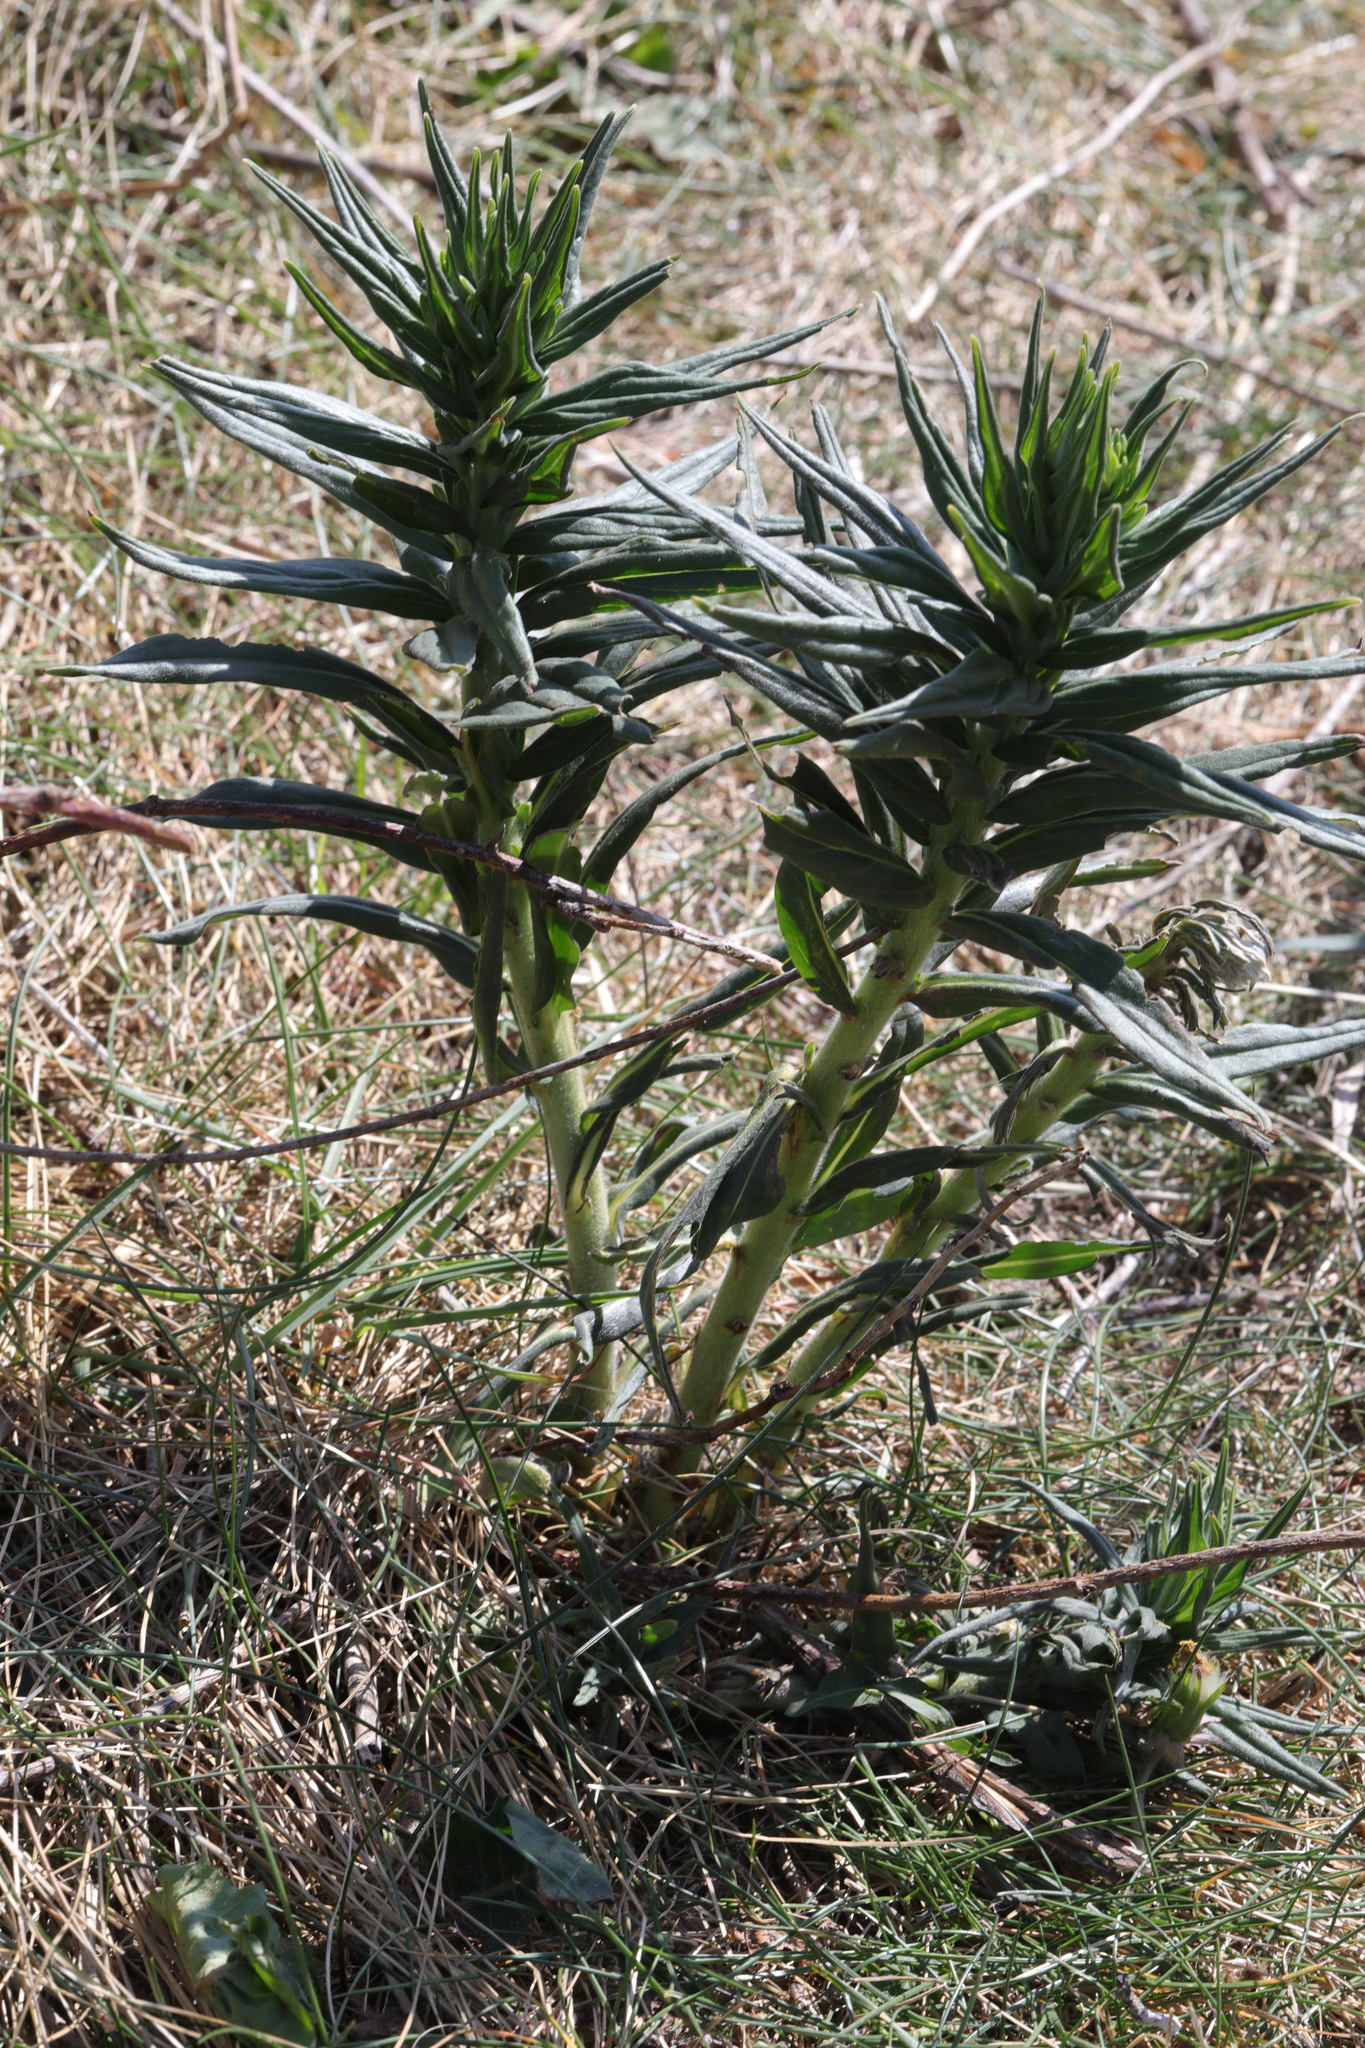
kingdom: Plantae
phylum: Tracheophyta
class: Magnoliopsida
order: Boraginales
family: Boraginaceae
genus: Lithospermum
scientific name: Lithospermum officinale
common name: Common gromwell
